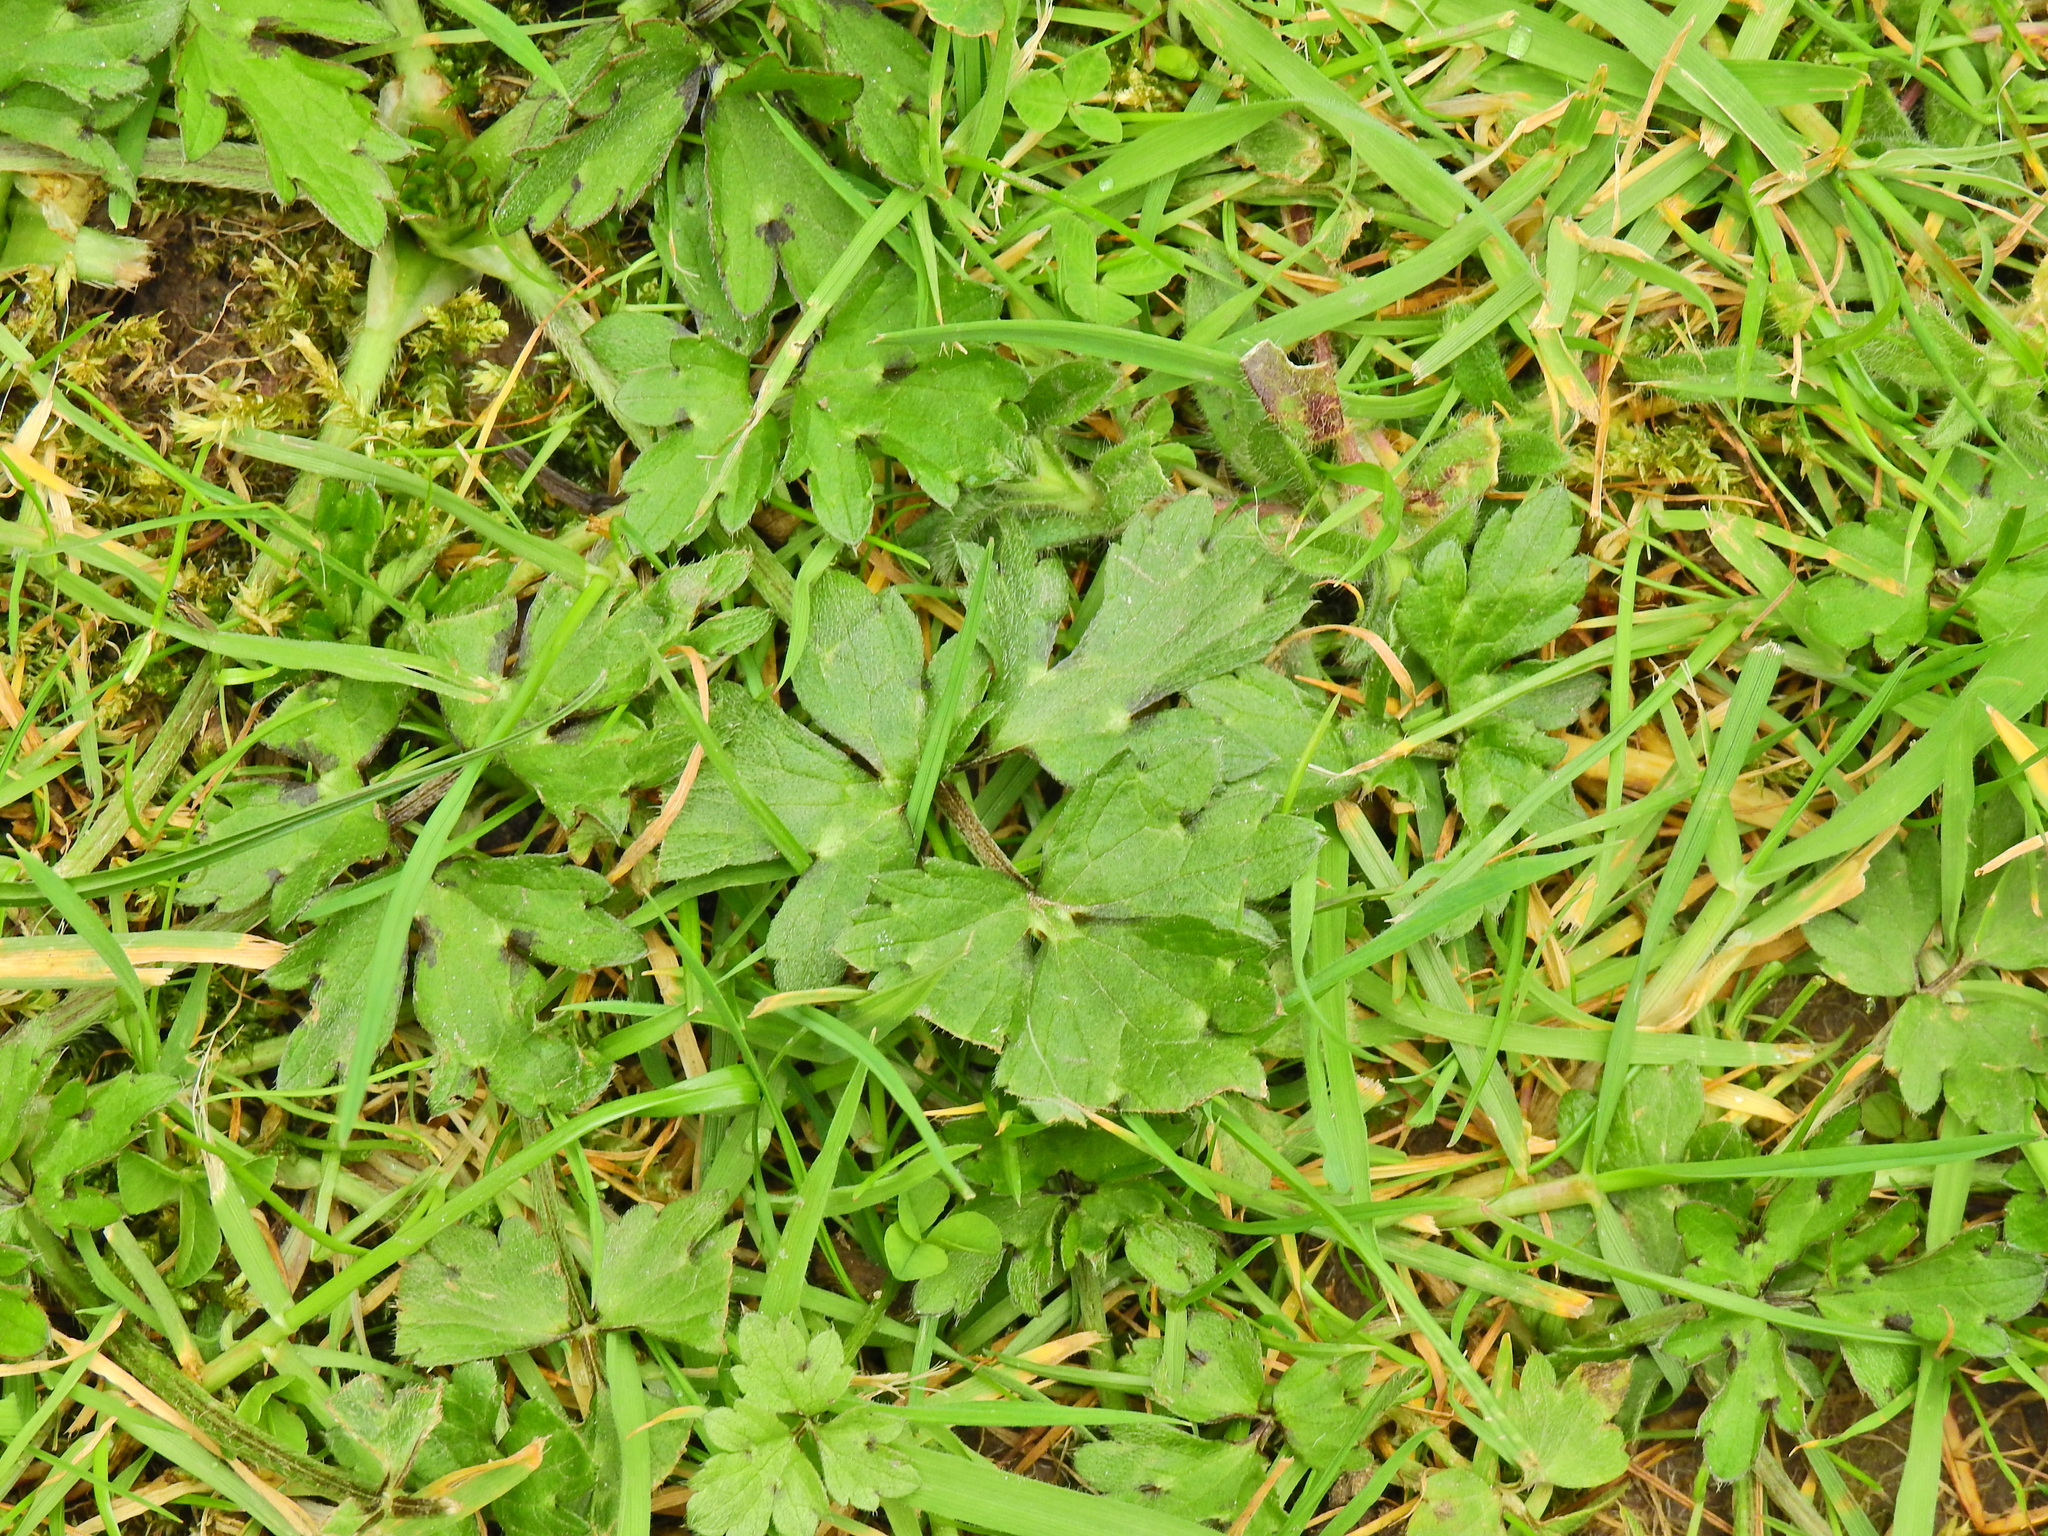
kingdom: Plantae
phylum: Tracheophyta
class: Magnoliopsida
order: Ranunculales
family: Ranunculaceae
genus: Ranunculus
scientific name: Ranunculus repens
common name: Creeping buttercup
